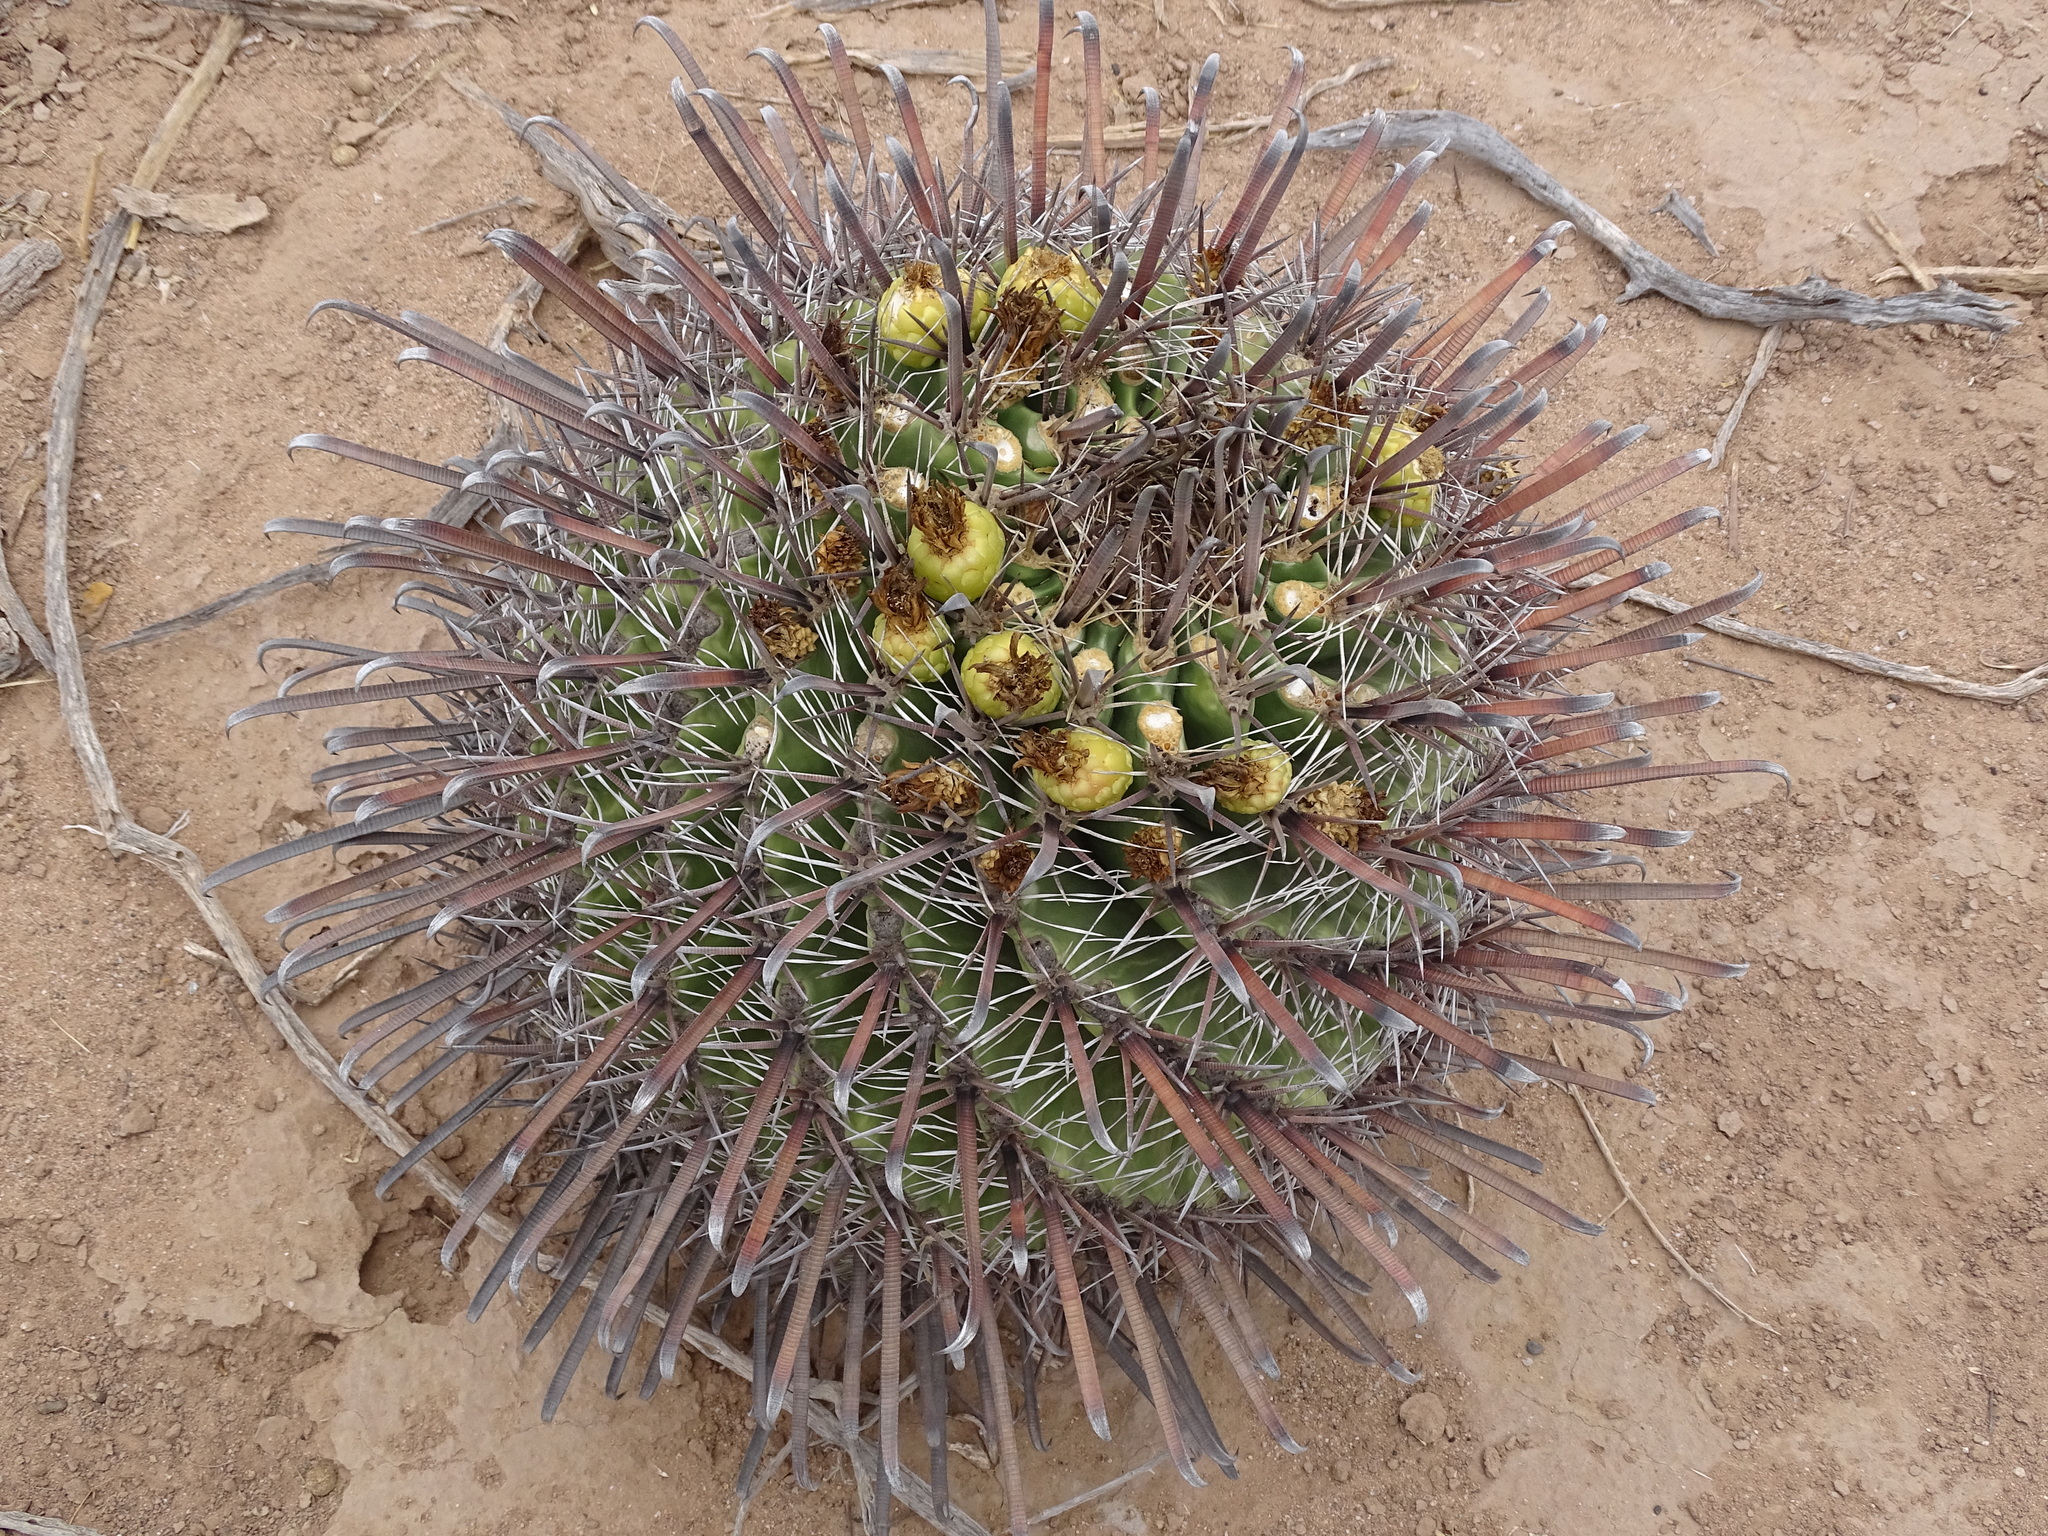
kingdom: Plantae
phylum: Tracheophyta
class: Magnoliopsida
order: Caryophyllales
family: Cactaceae
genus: Ferocactus
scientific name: Ferocactus wislizeni
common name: Candy barrel cactus
